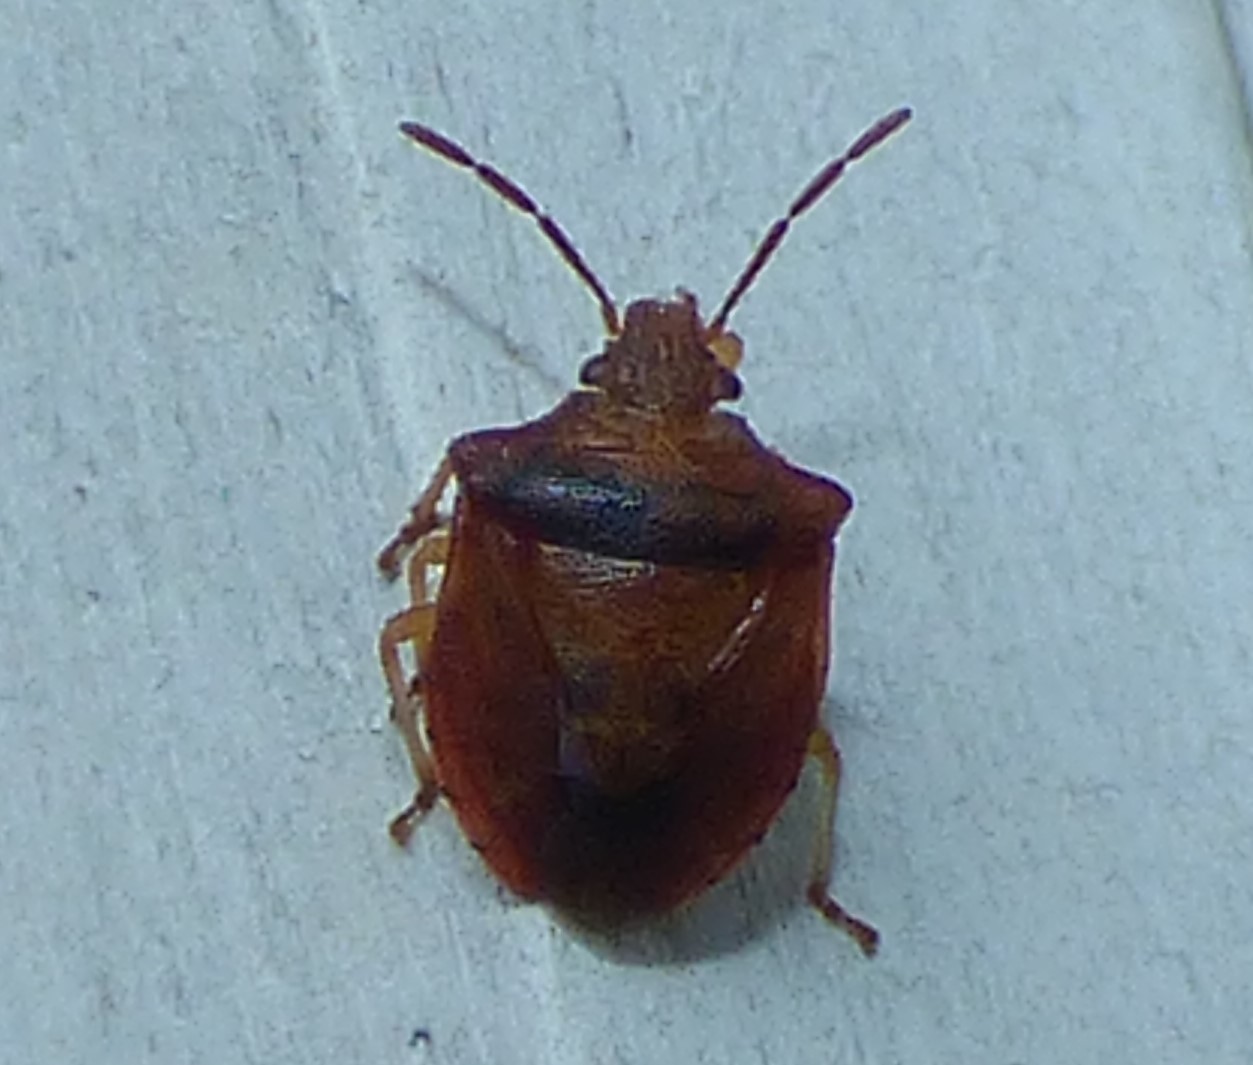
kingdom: Animalia
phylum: Arthropoda
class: Insecta
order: Hemiptera
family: Pentatomidae
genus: Dendrocoris
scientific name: Dendrocoris humeralis
